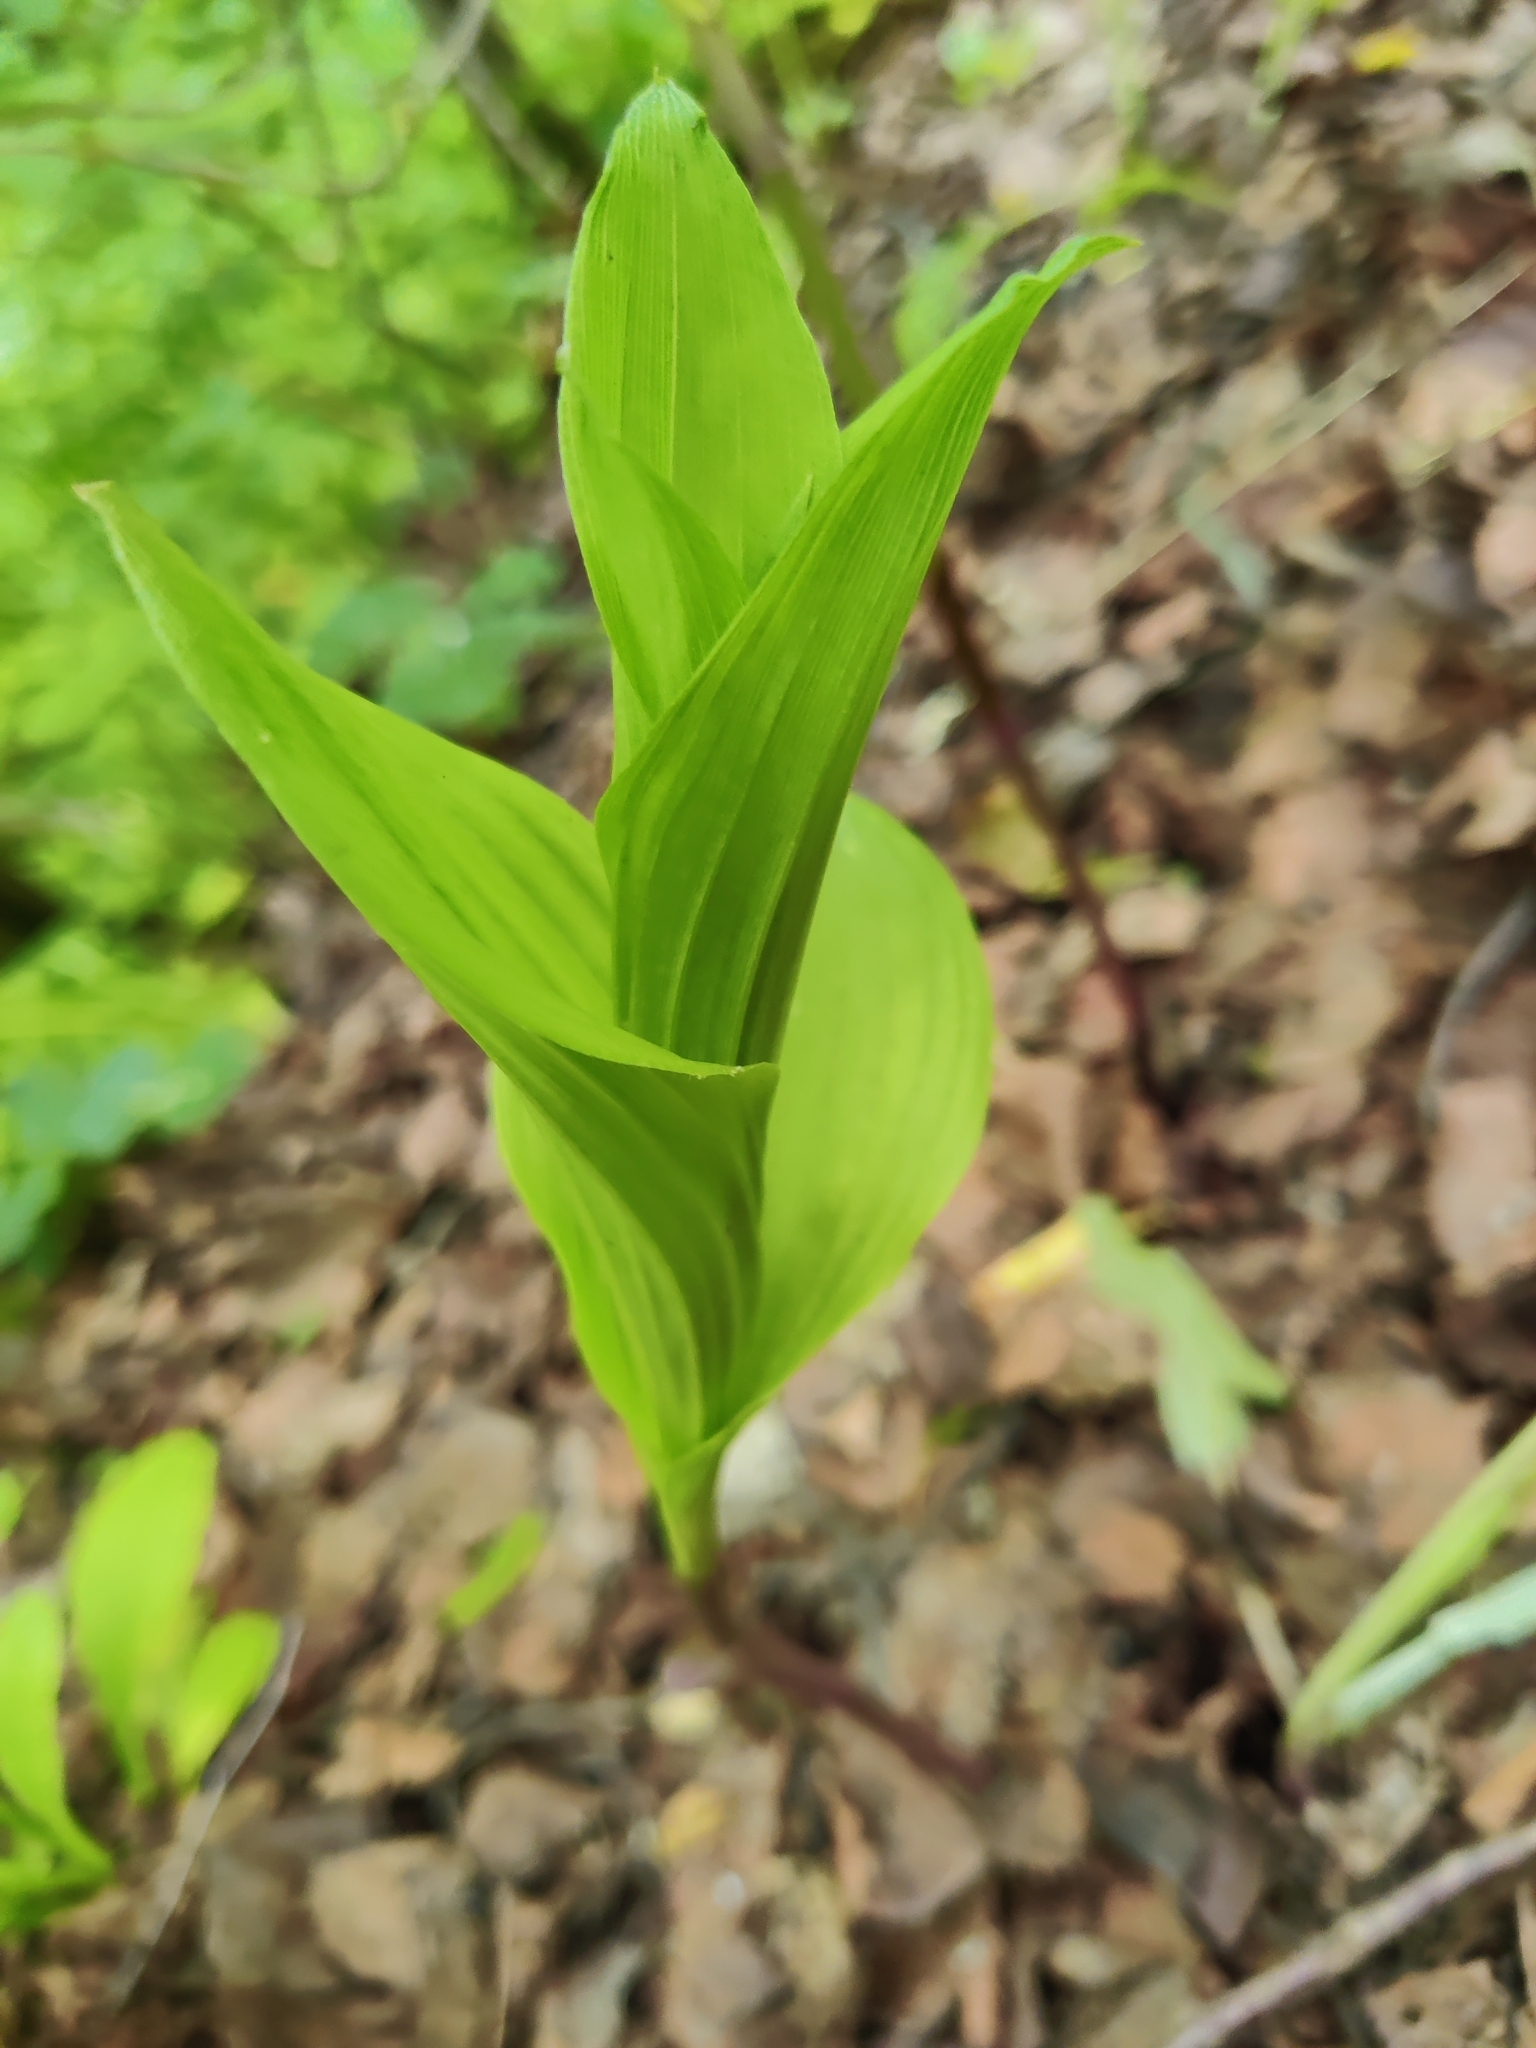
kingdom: Plantae
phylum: Tracheophyta
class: Liliopsida
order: Asparagales
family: Orchidaceae
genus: Epipactis
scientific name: Epipactis helleborine
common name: Broad-leaved helleborine
